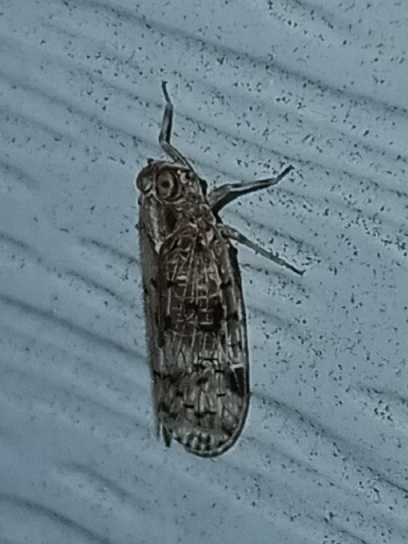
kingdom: Animalia
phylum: Arthropoda
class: Insecta
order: Hemiptera
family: Cixiidae
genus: Melanoliarus
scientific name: Melanoliarus placitus
